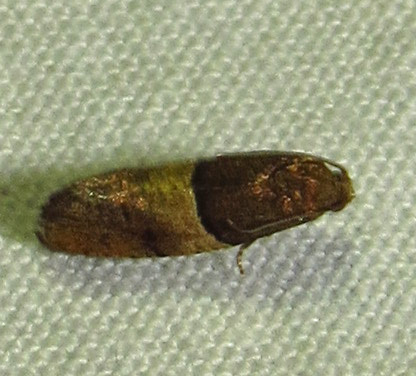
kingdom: Animalia
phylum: Arthropoda
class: Insecta
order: Lepidoptera
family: Tortricidae
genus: Larisa
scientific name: Larisa subsolana
